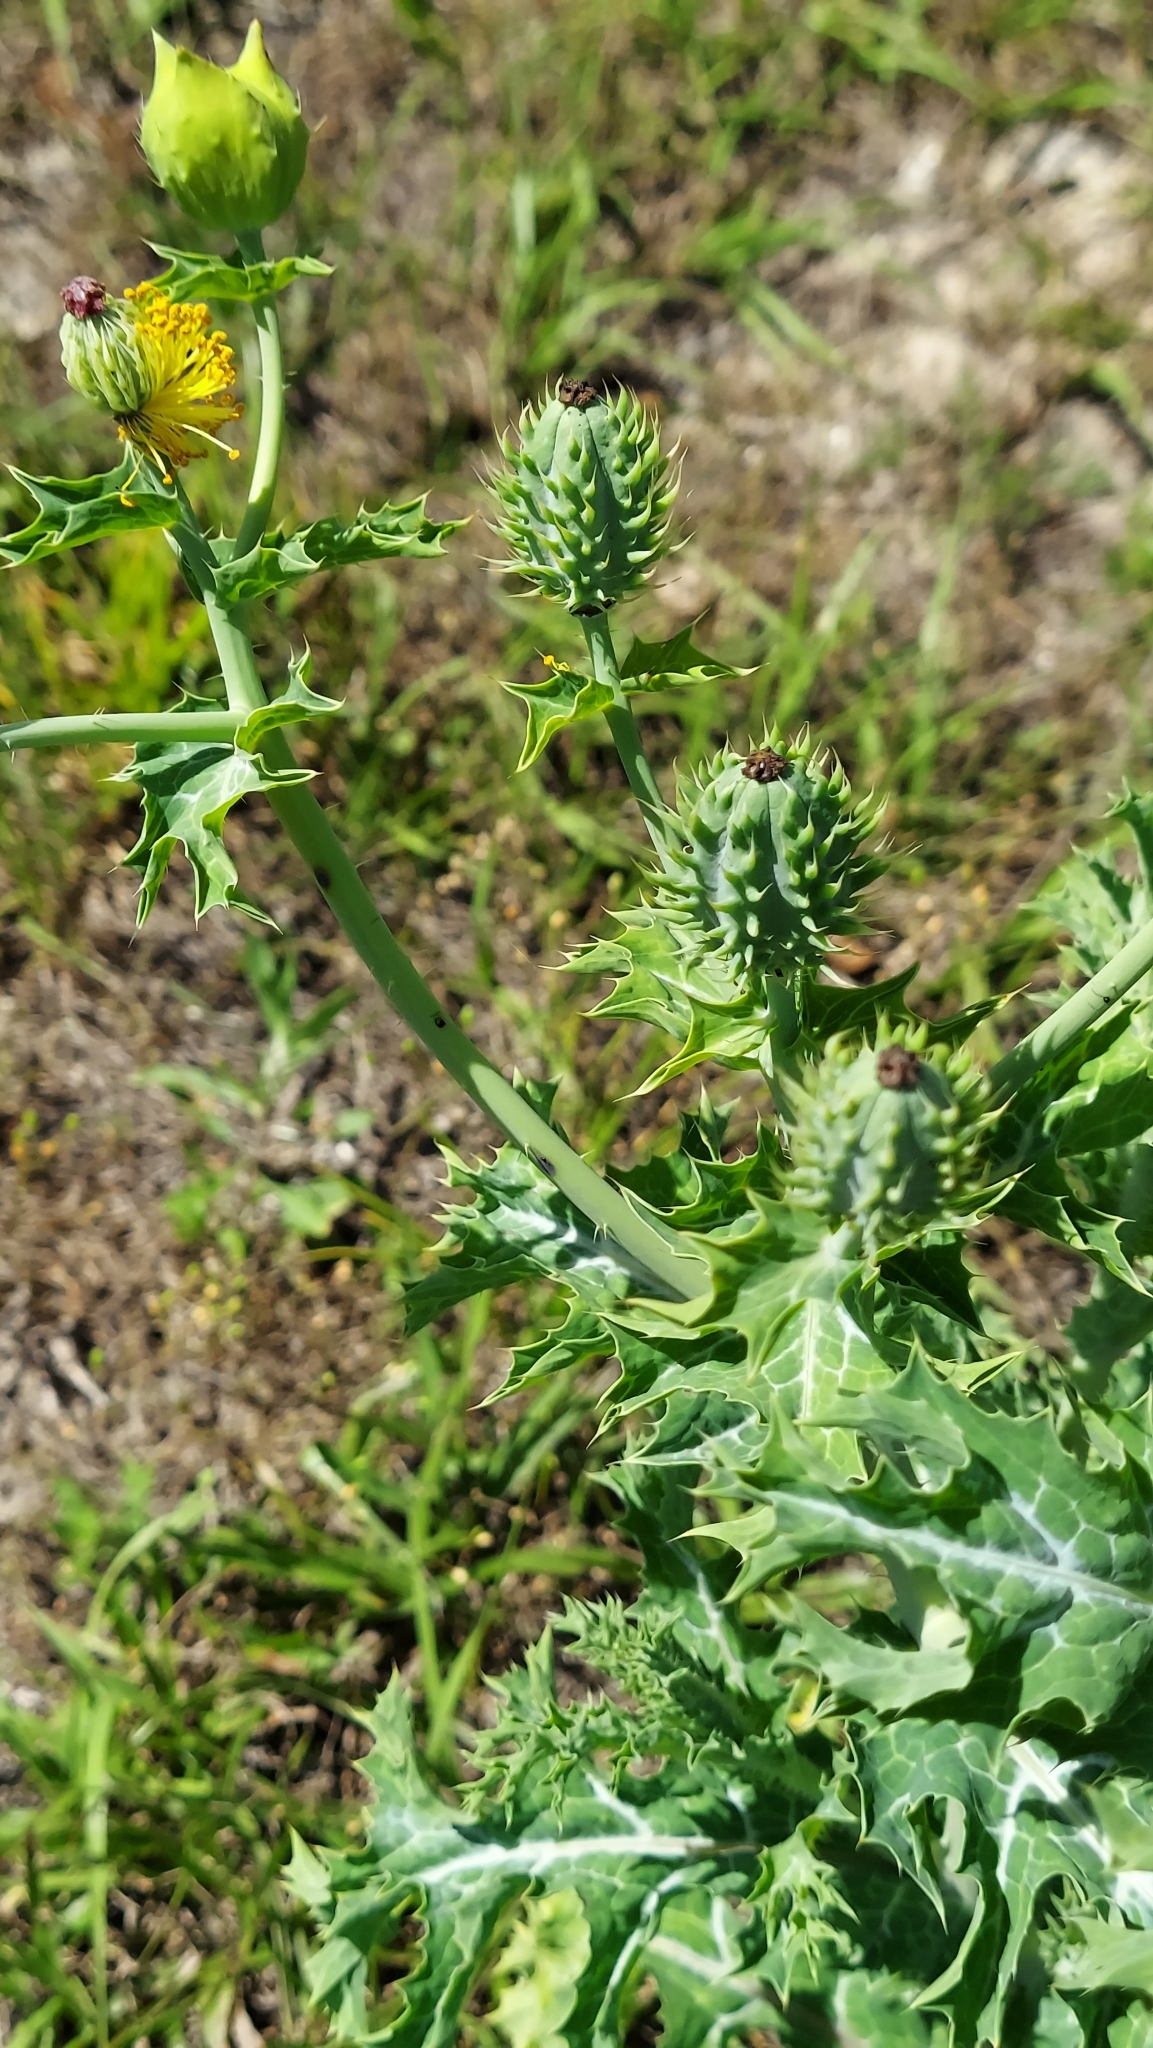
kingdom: Plantae
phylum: Tracheophyta
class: Magnoliopsida
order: Ranunculales
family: Papaveraceae
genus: Argemone
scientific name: Argemone albiflora
